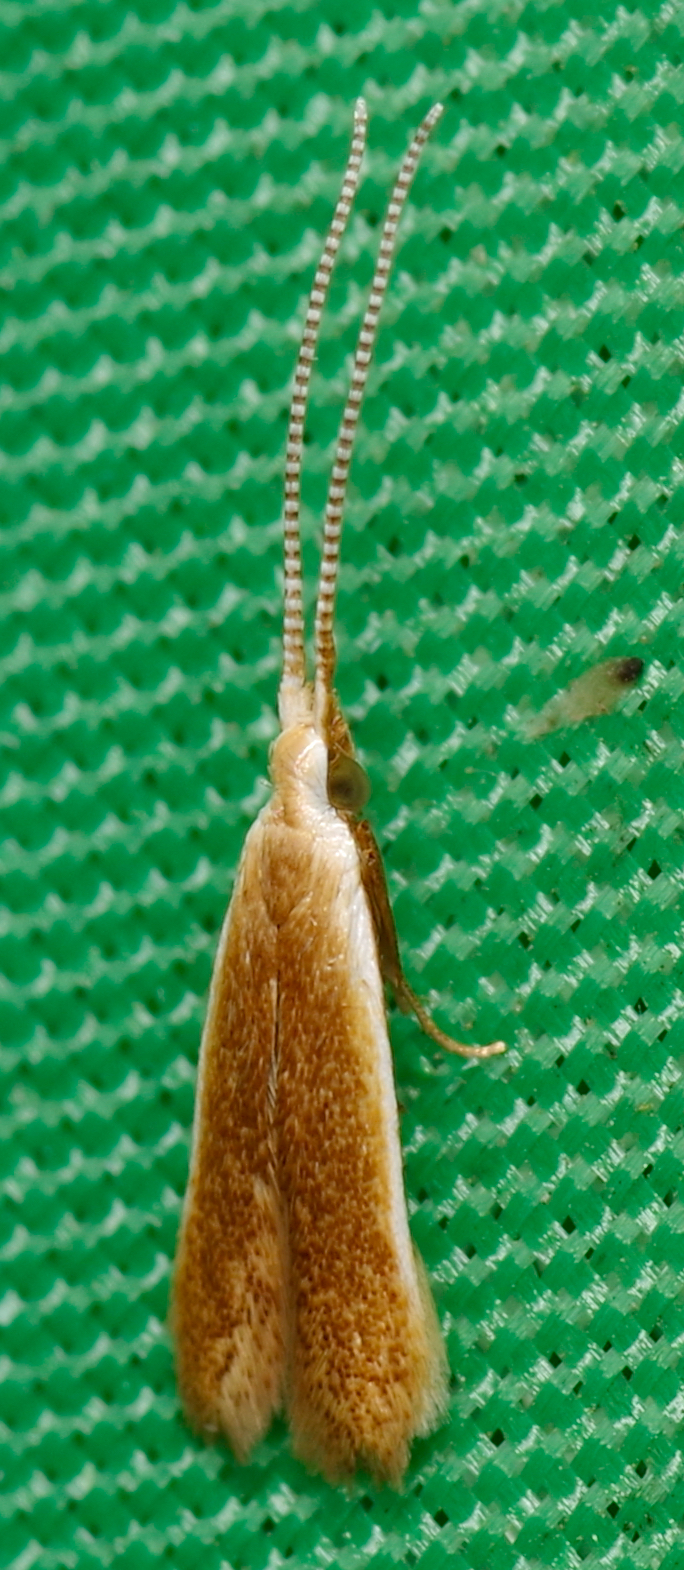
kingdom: Animalia
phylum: Arthropoda
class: Insecta
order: Lepidoptera
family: Coleophoridae
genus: Coleophora
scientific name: Coleophora laticornella
